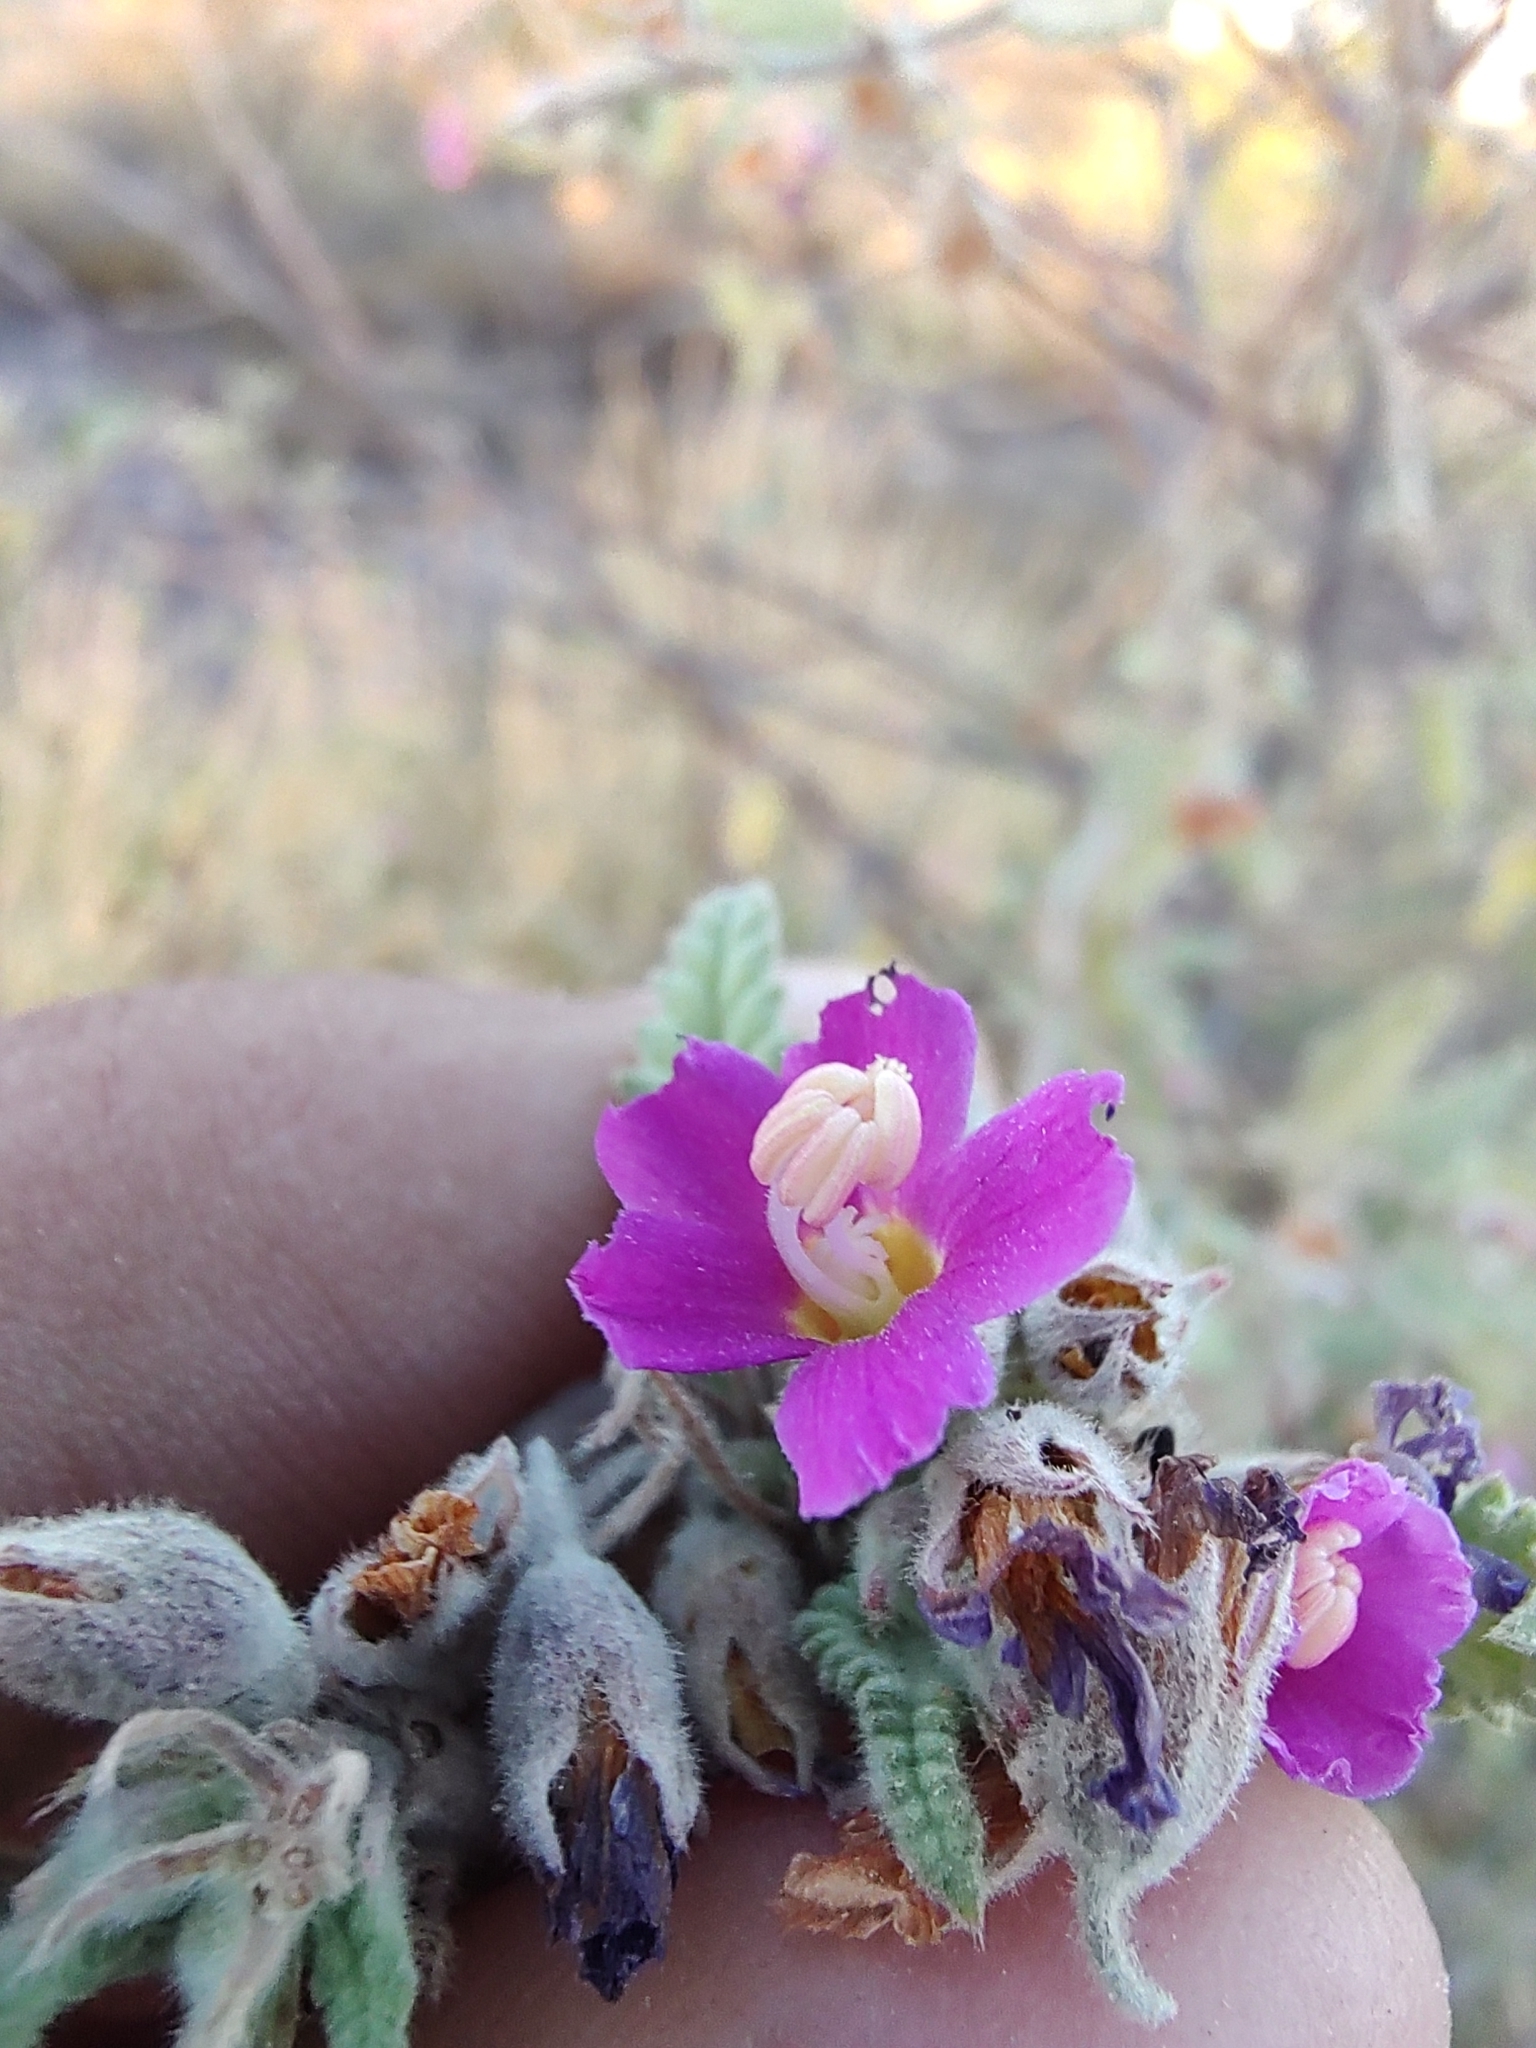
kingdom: Plantae
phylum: Tracheophyta
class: Magnoliopsida
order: Malvales
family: Malvaceae
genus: Melochia
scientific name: Melochia tomentosa
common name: Black torch
